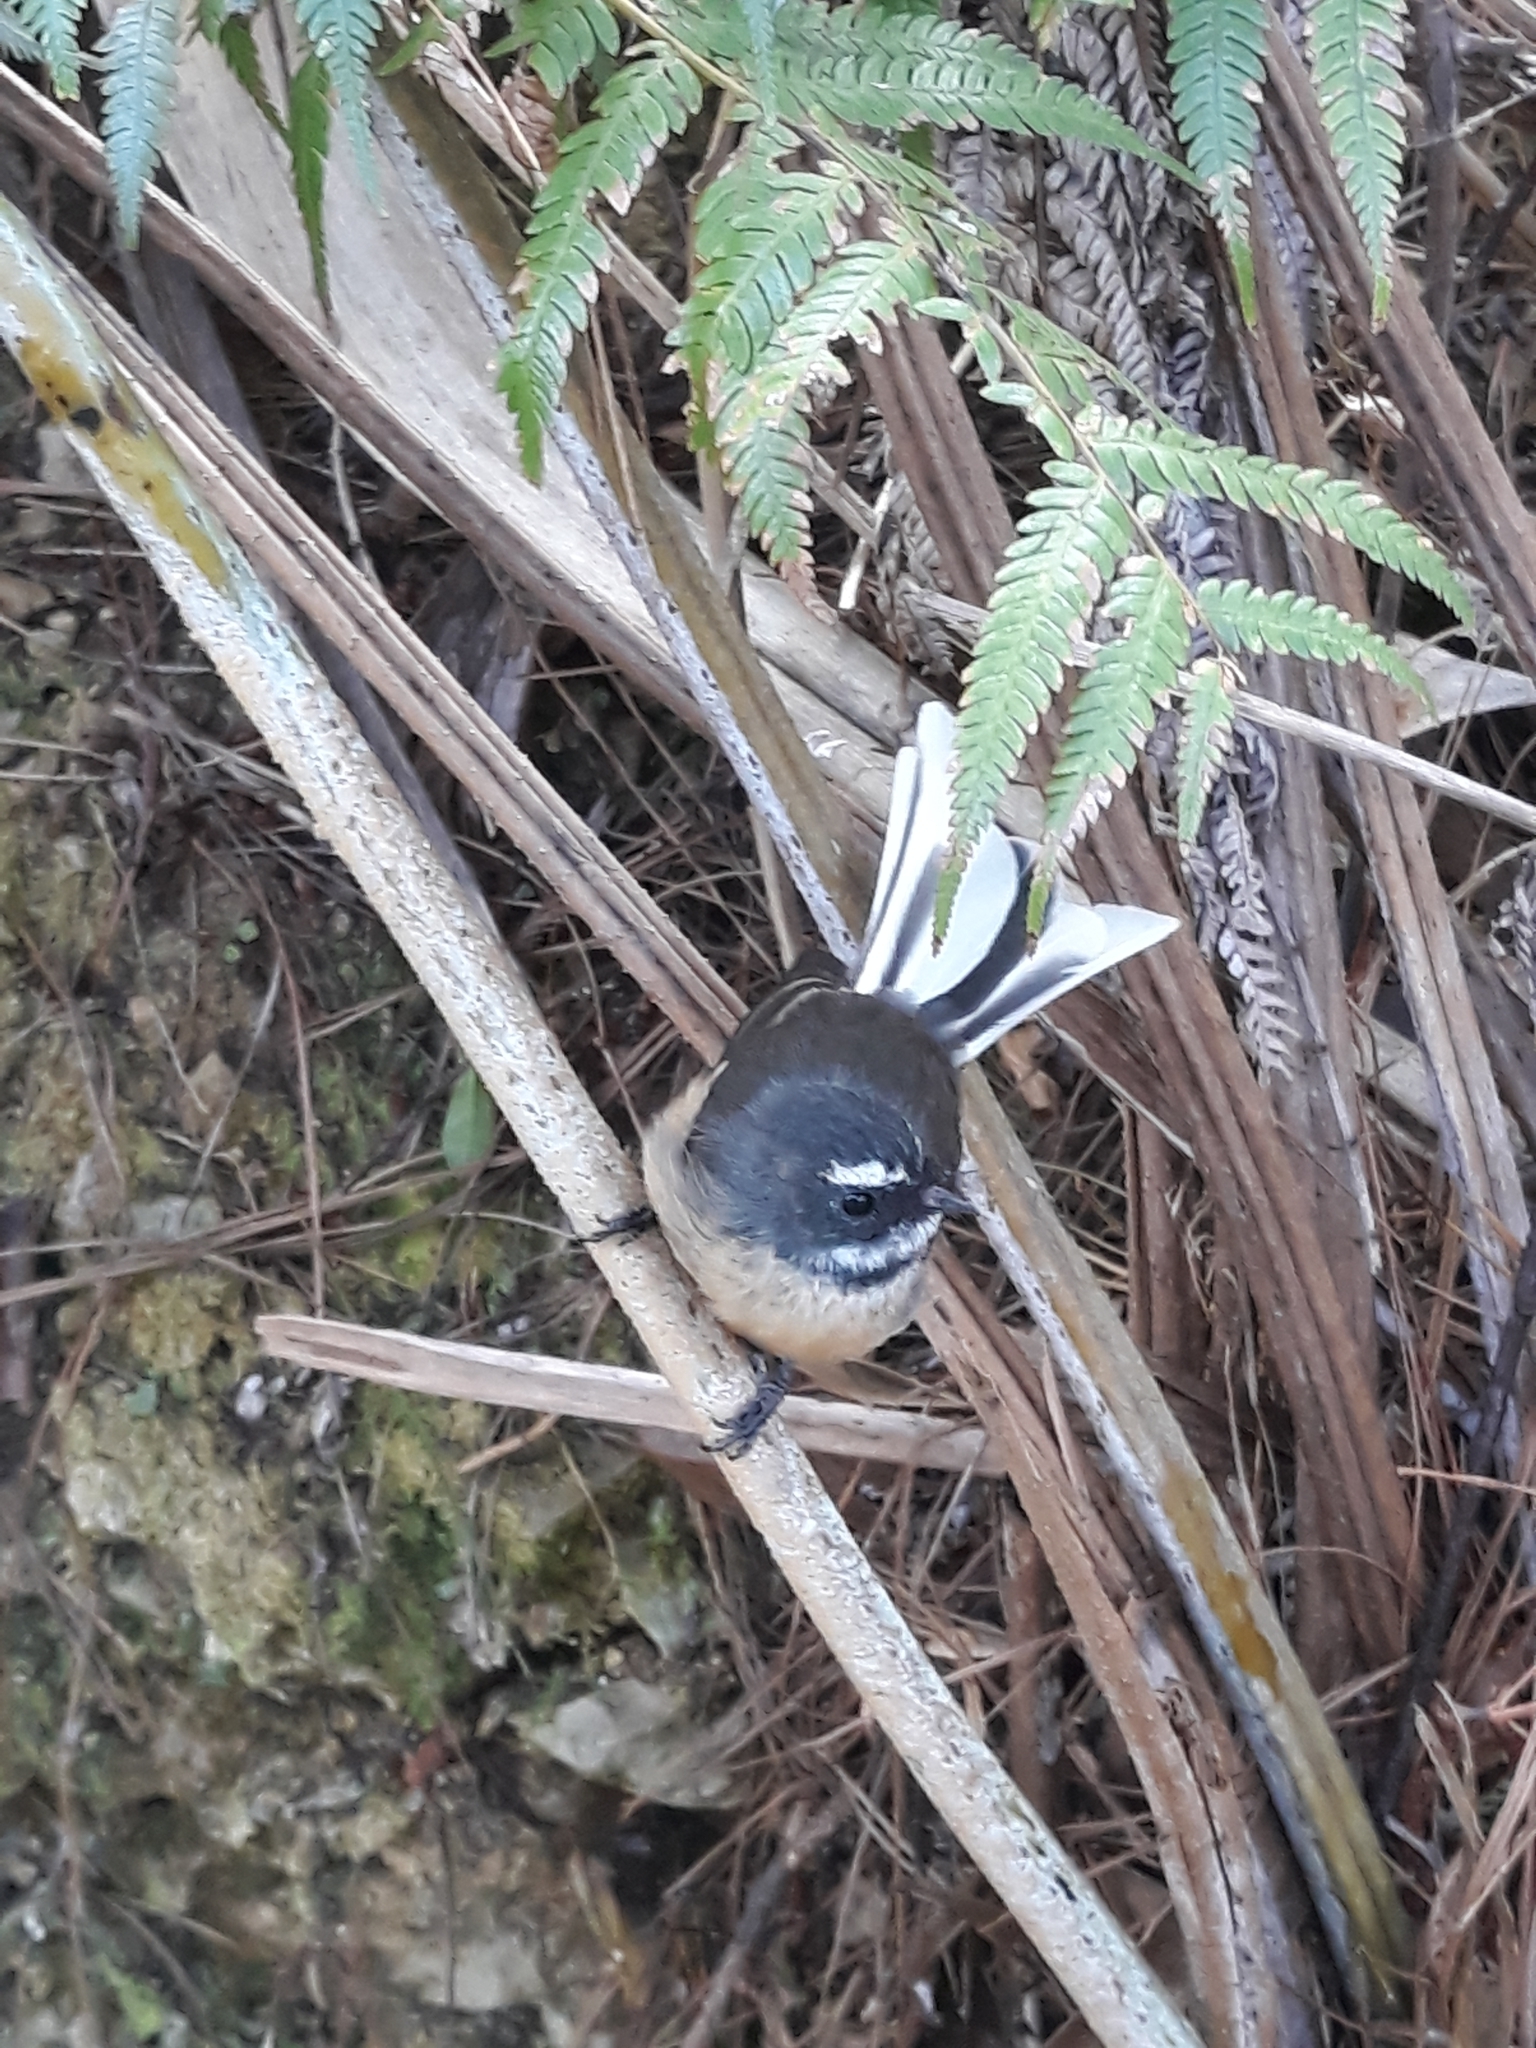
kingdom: Animalia
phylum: Chordata
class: Aves
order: Passeriformes
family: Rhipiduridae
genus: Rhipidura
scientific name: Rhipidura fuliginosa
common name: New zealand fantail
